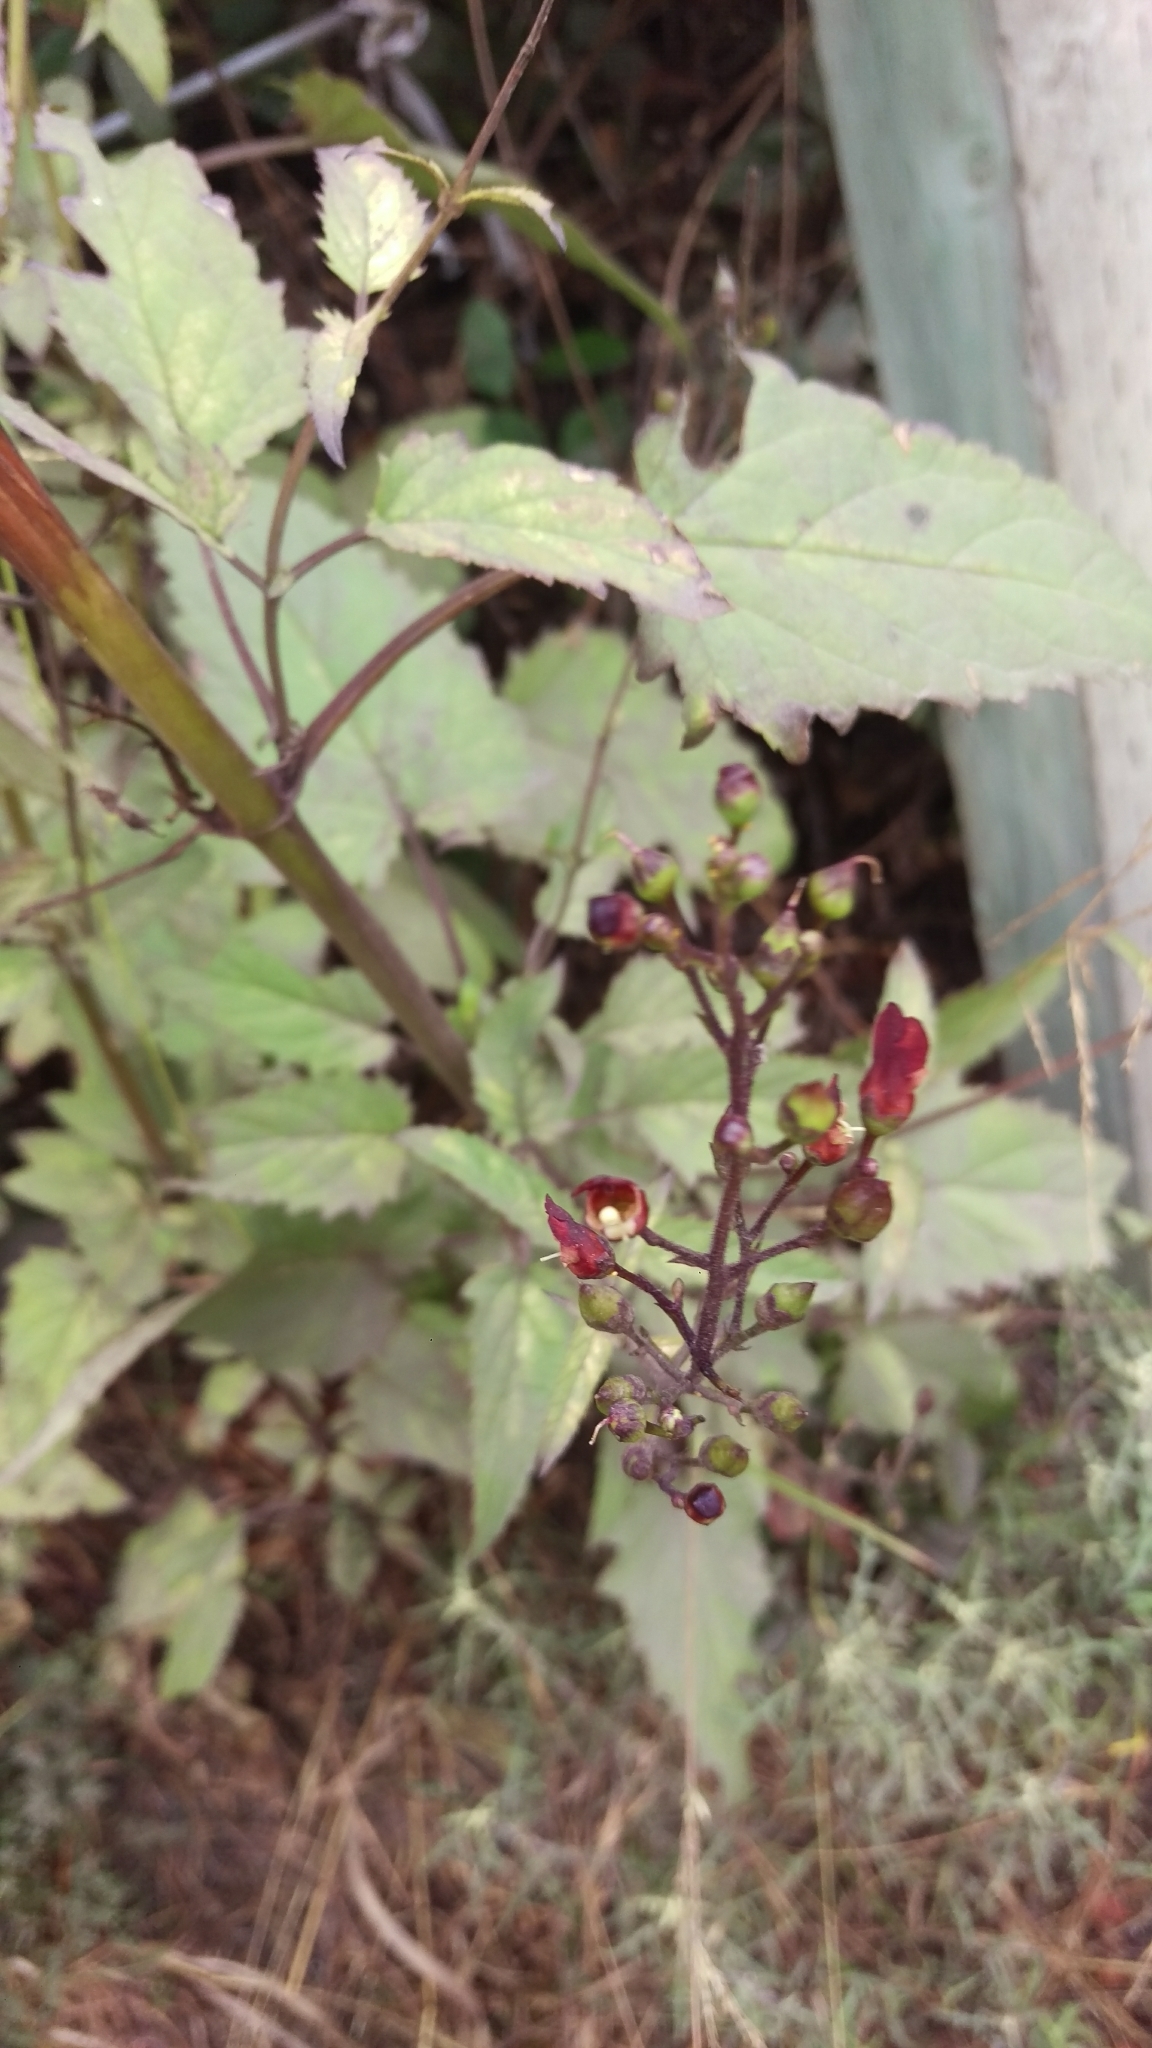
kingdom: Plantae
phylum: Tracheophyta
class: Magnoliopsida
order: Lamiales
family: Scrophulariaceae
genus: Scrophularia
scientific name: Scrophularia californica
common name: California figwort
